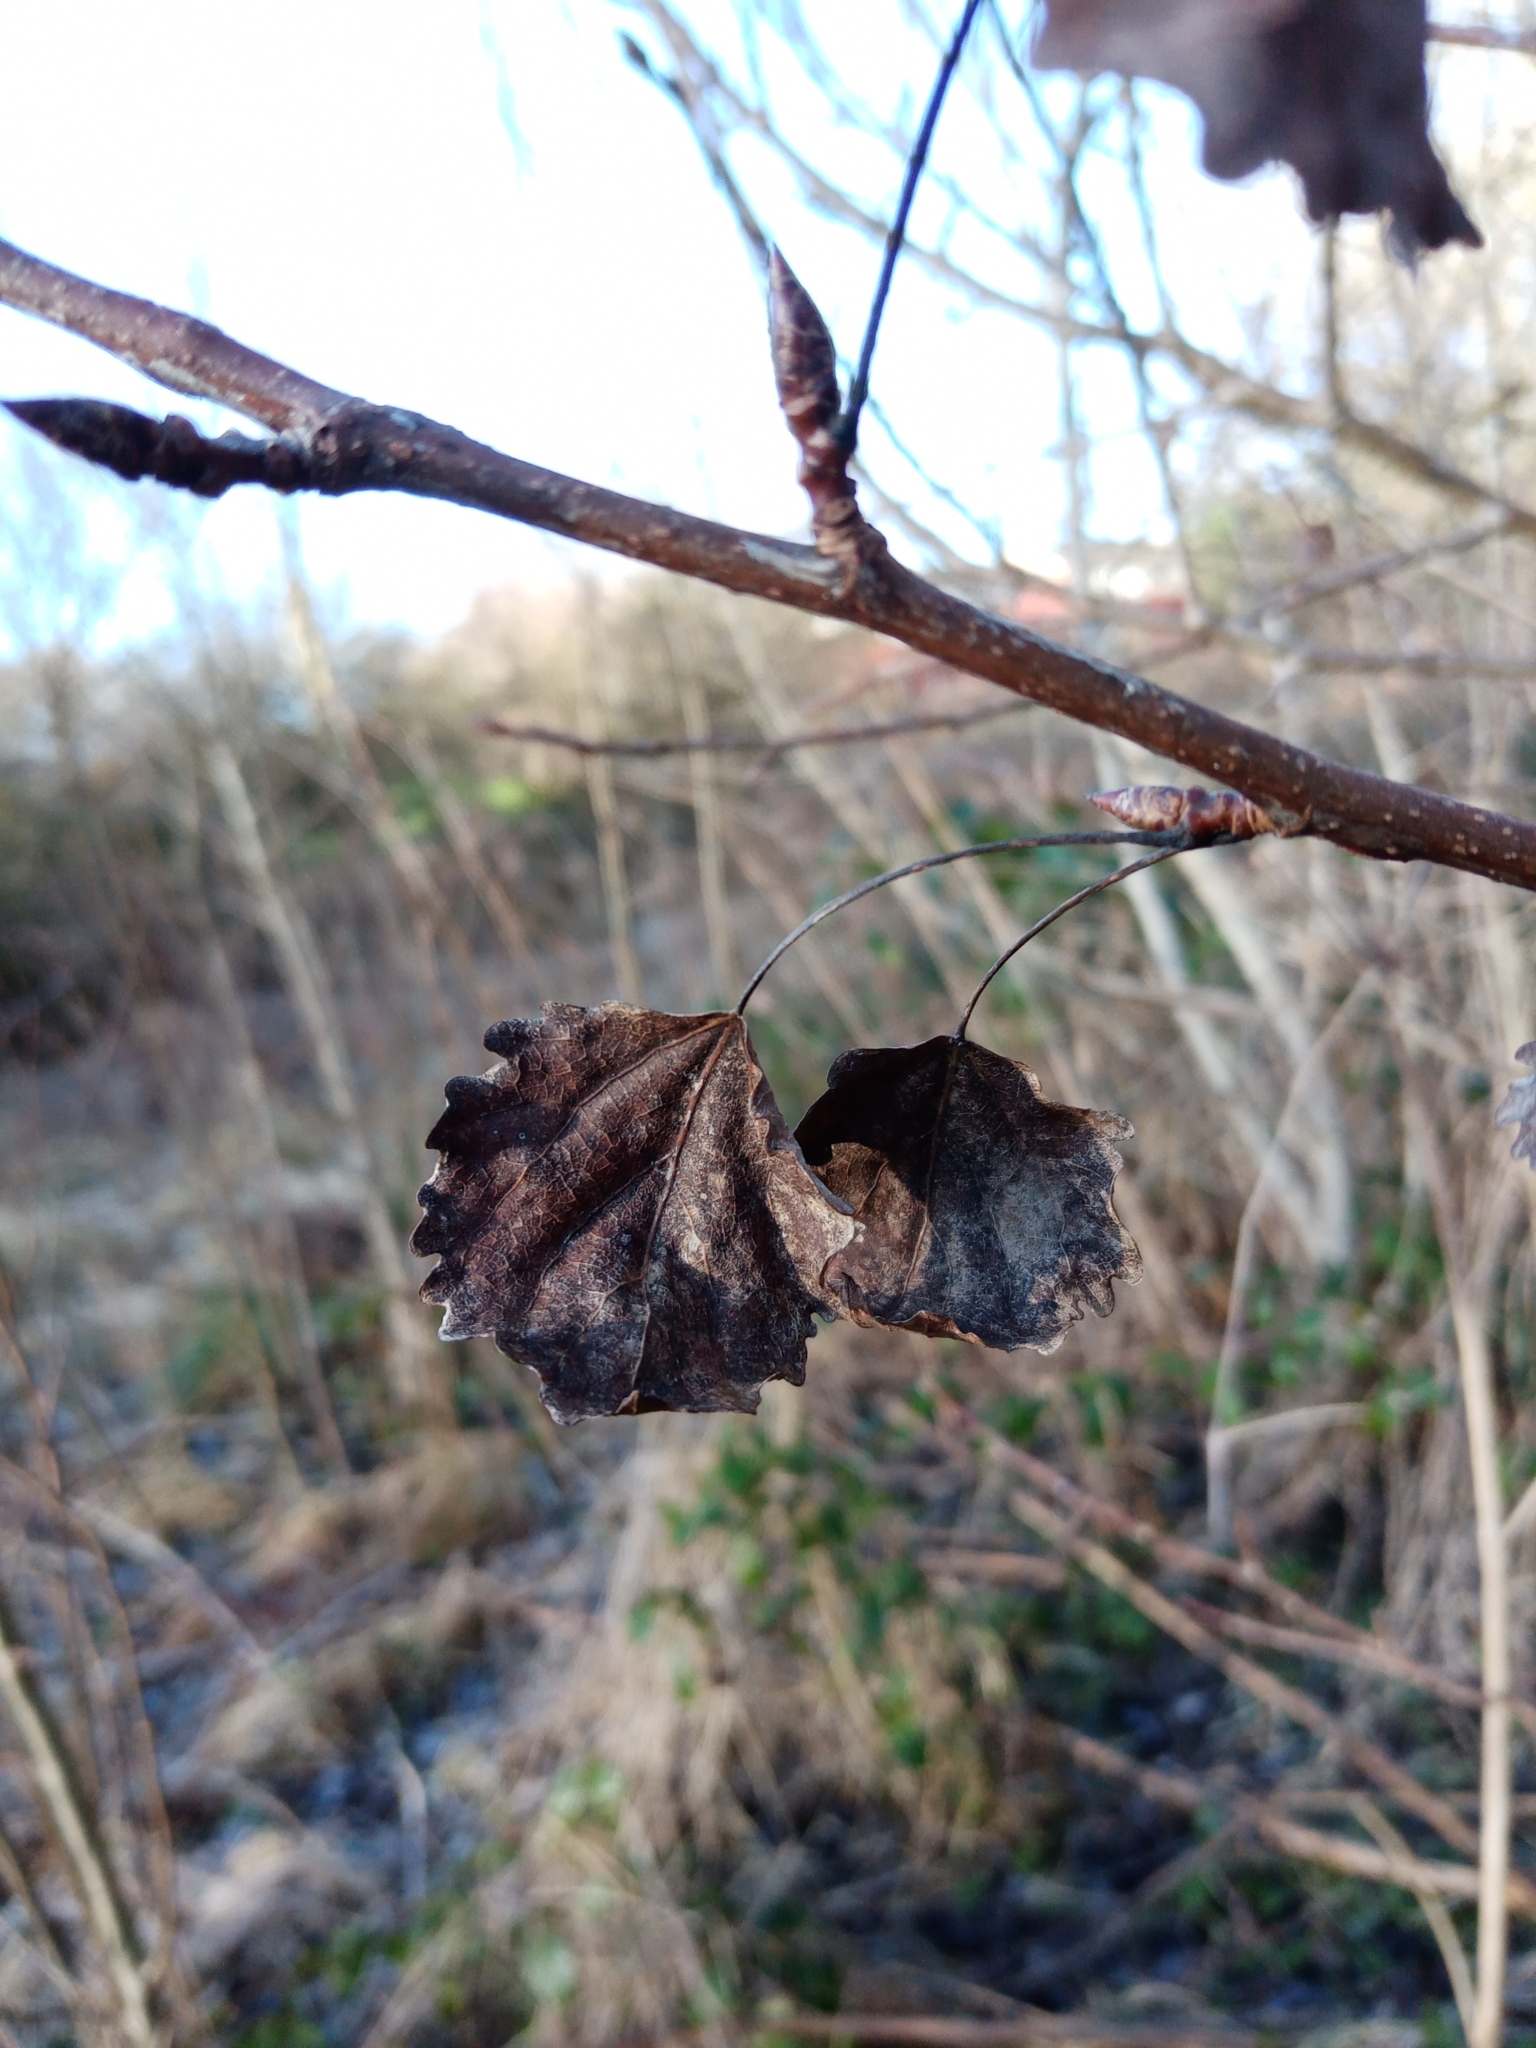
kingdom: Plantae
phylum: Tracheophyta
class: Magnoliopsida
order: Malpighiales
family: Salicaceae
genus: Populus
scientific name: Populus tremula
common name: European aspen
